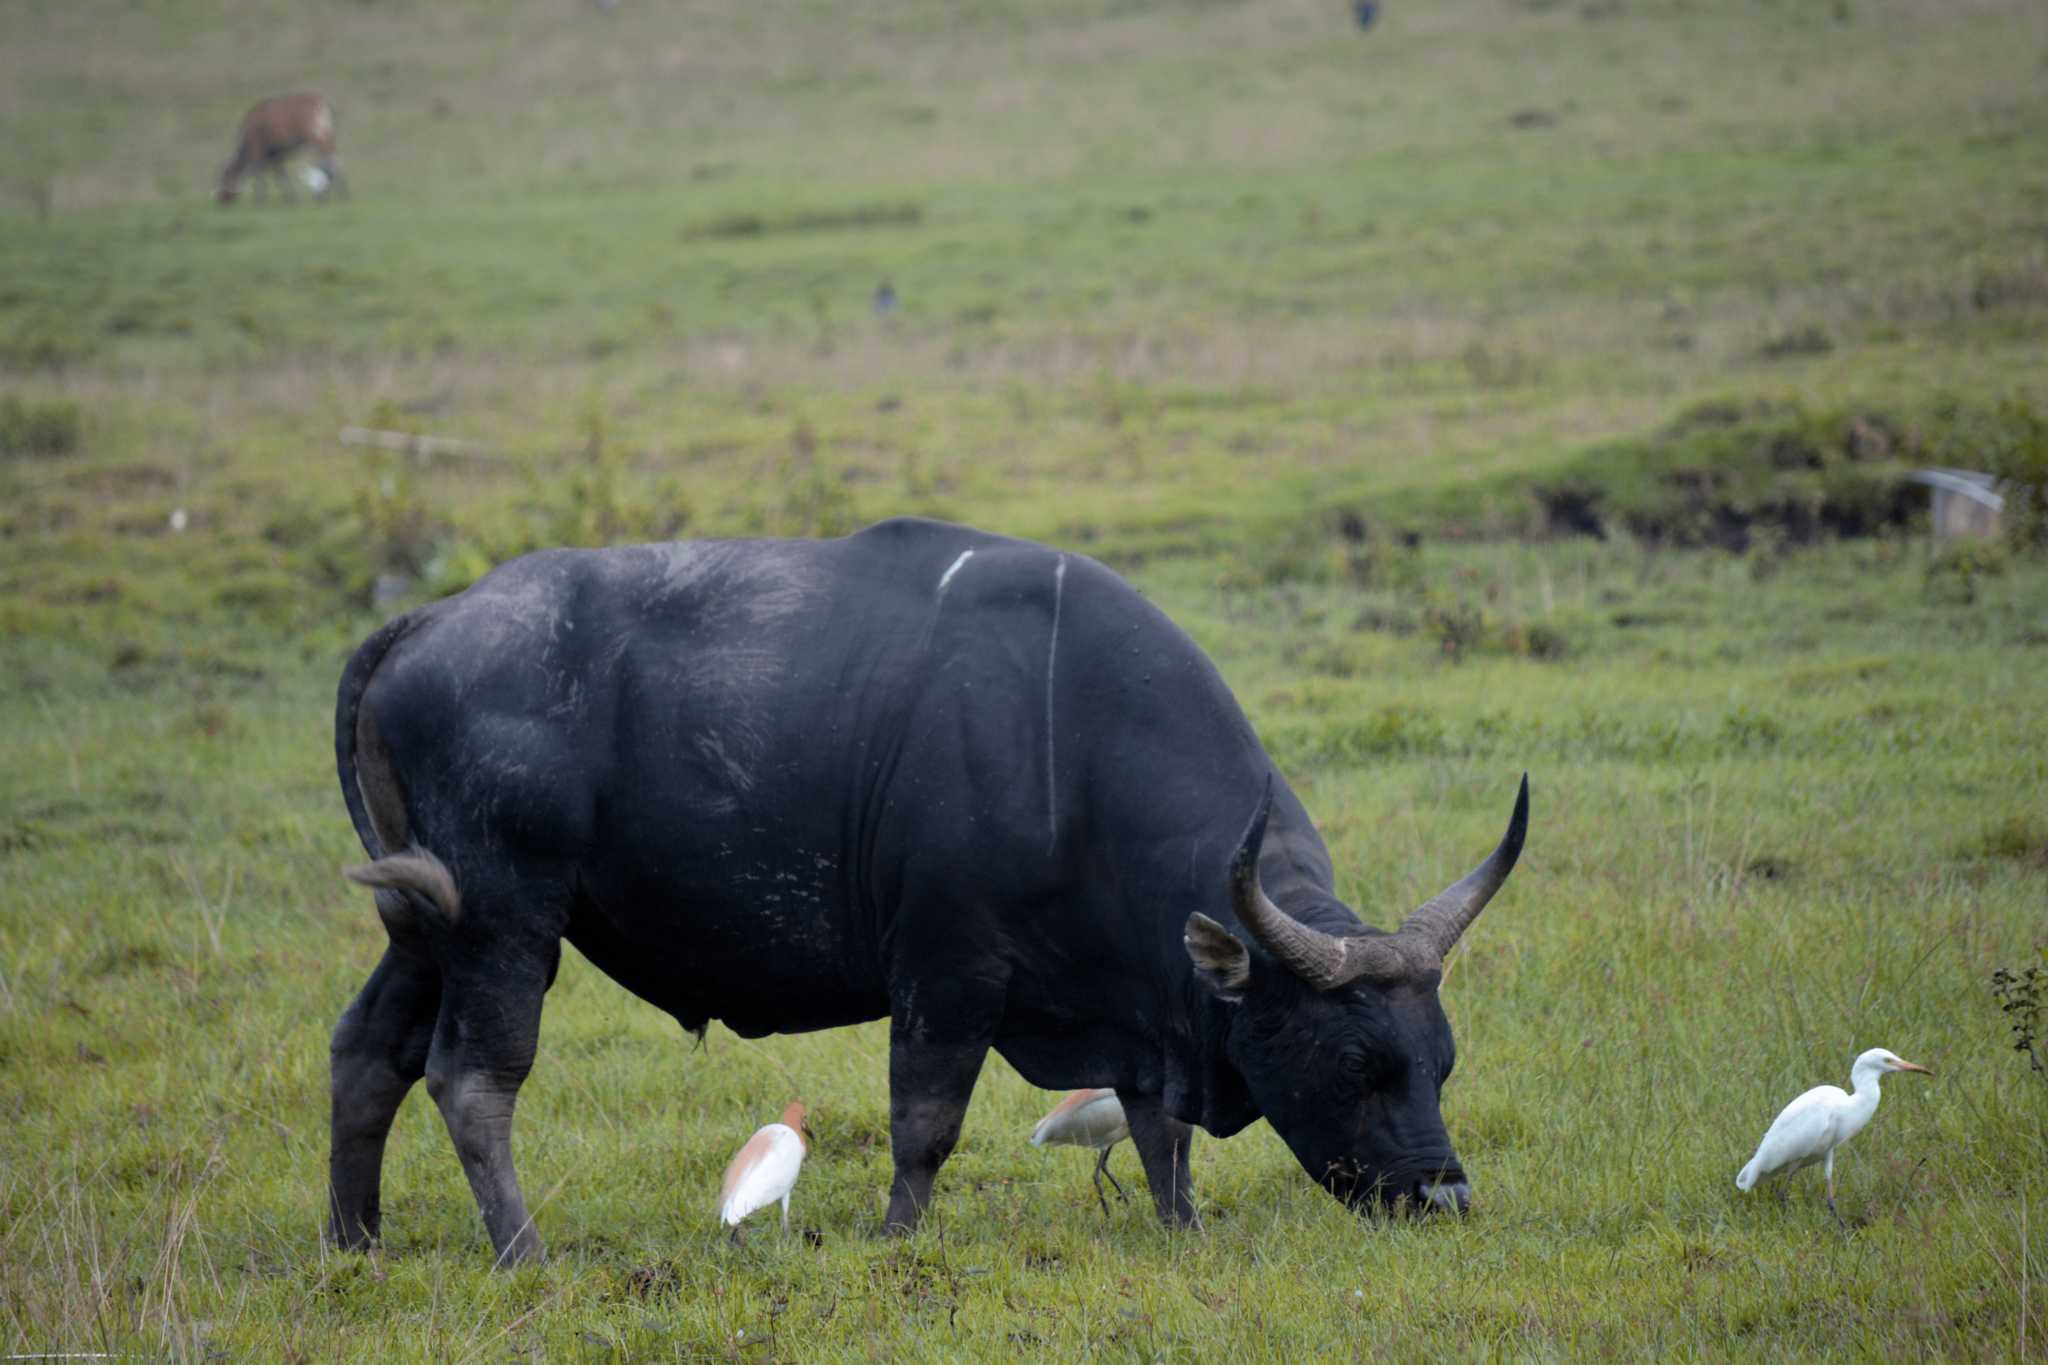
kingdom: Animalia
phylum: Chordata
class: Mammalia
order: Artiodactyla
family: Bovidae
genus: Bos
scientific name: Bos javanicus
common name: Banteng
